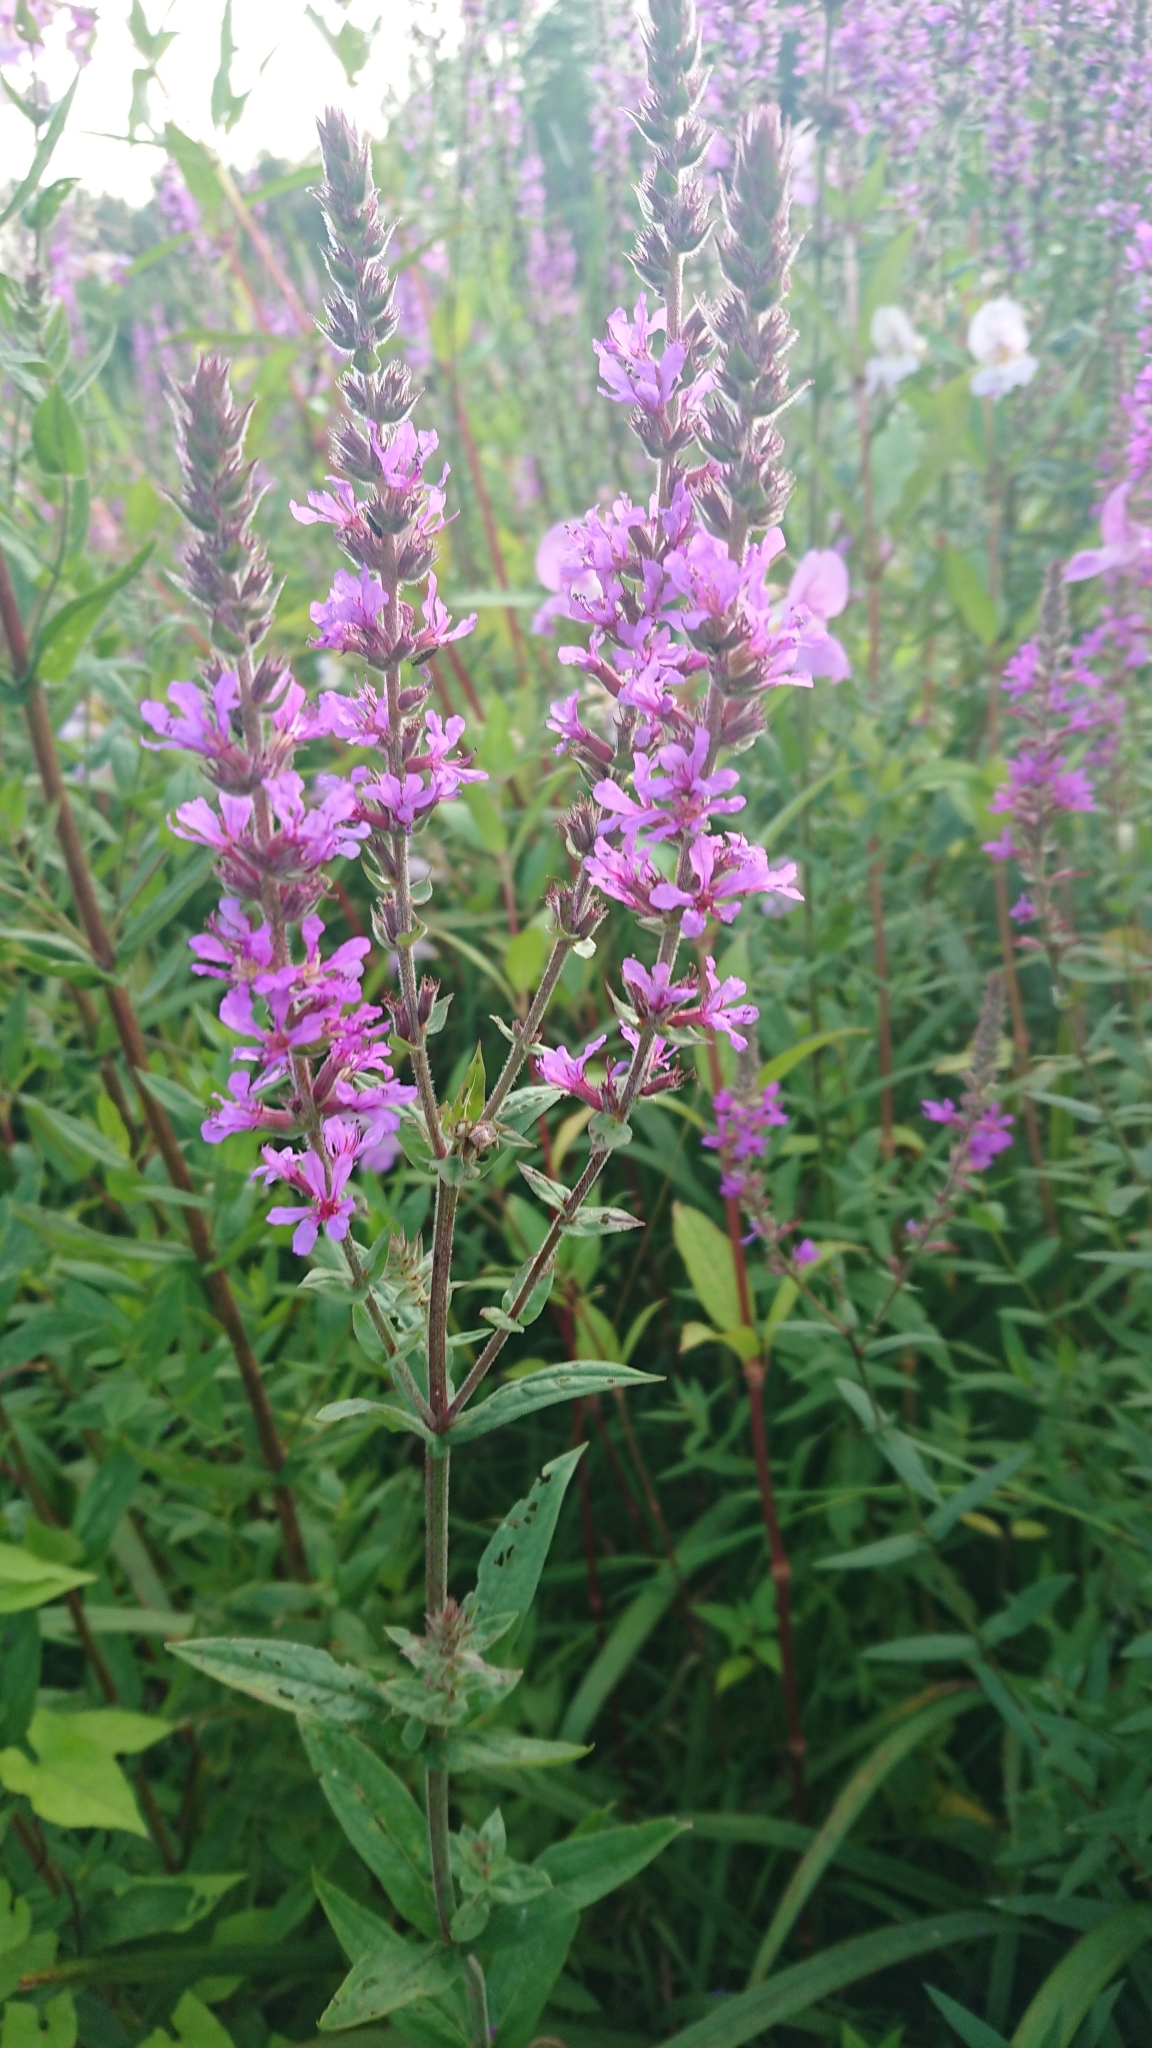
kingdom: Plantae
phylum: Tracheophyta
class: Magnoliopsida
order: Myrtales
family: Lythraceae
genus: Lythrum
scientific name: Lythrum salicaria
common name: Purple loosestrife
